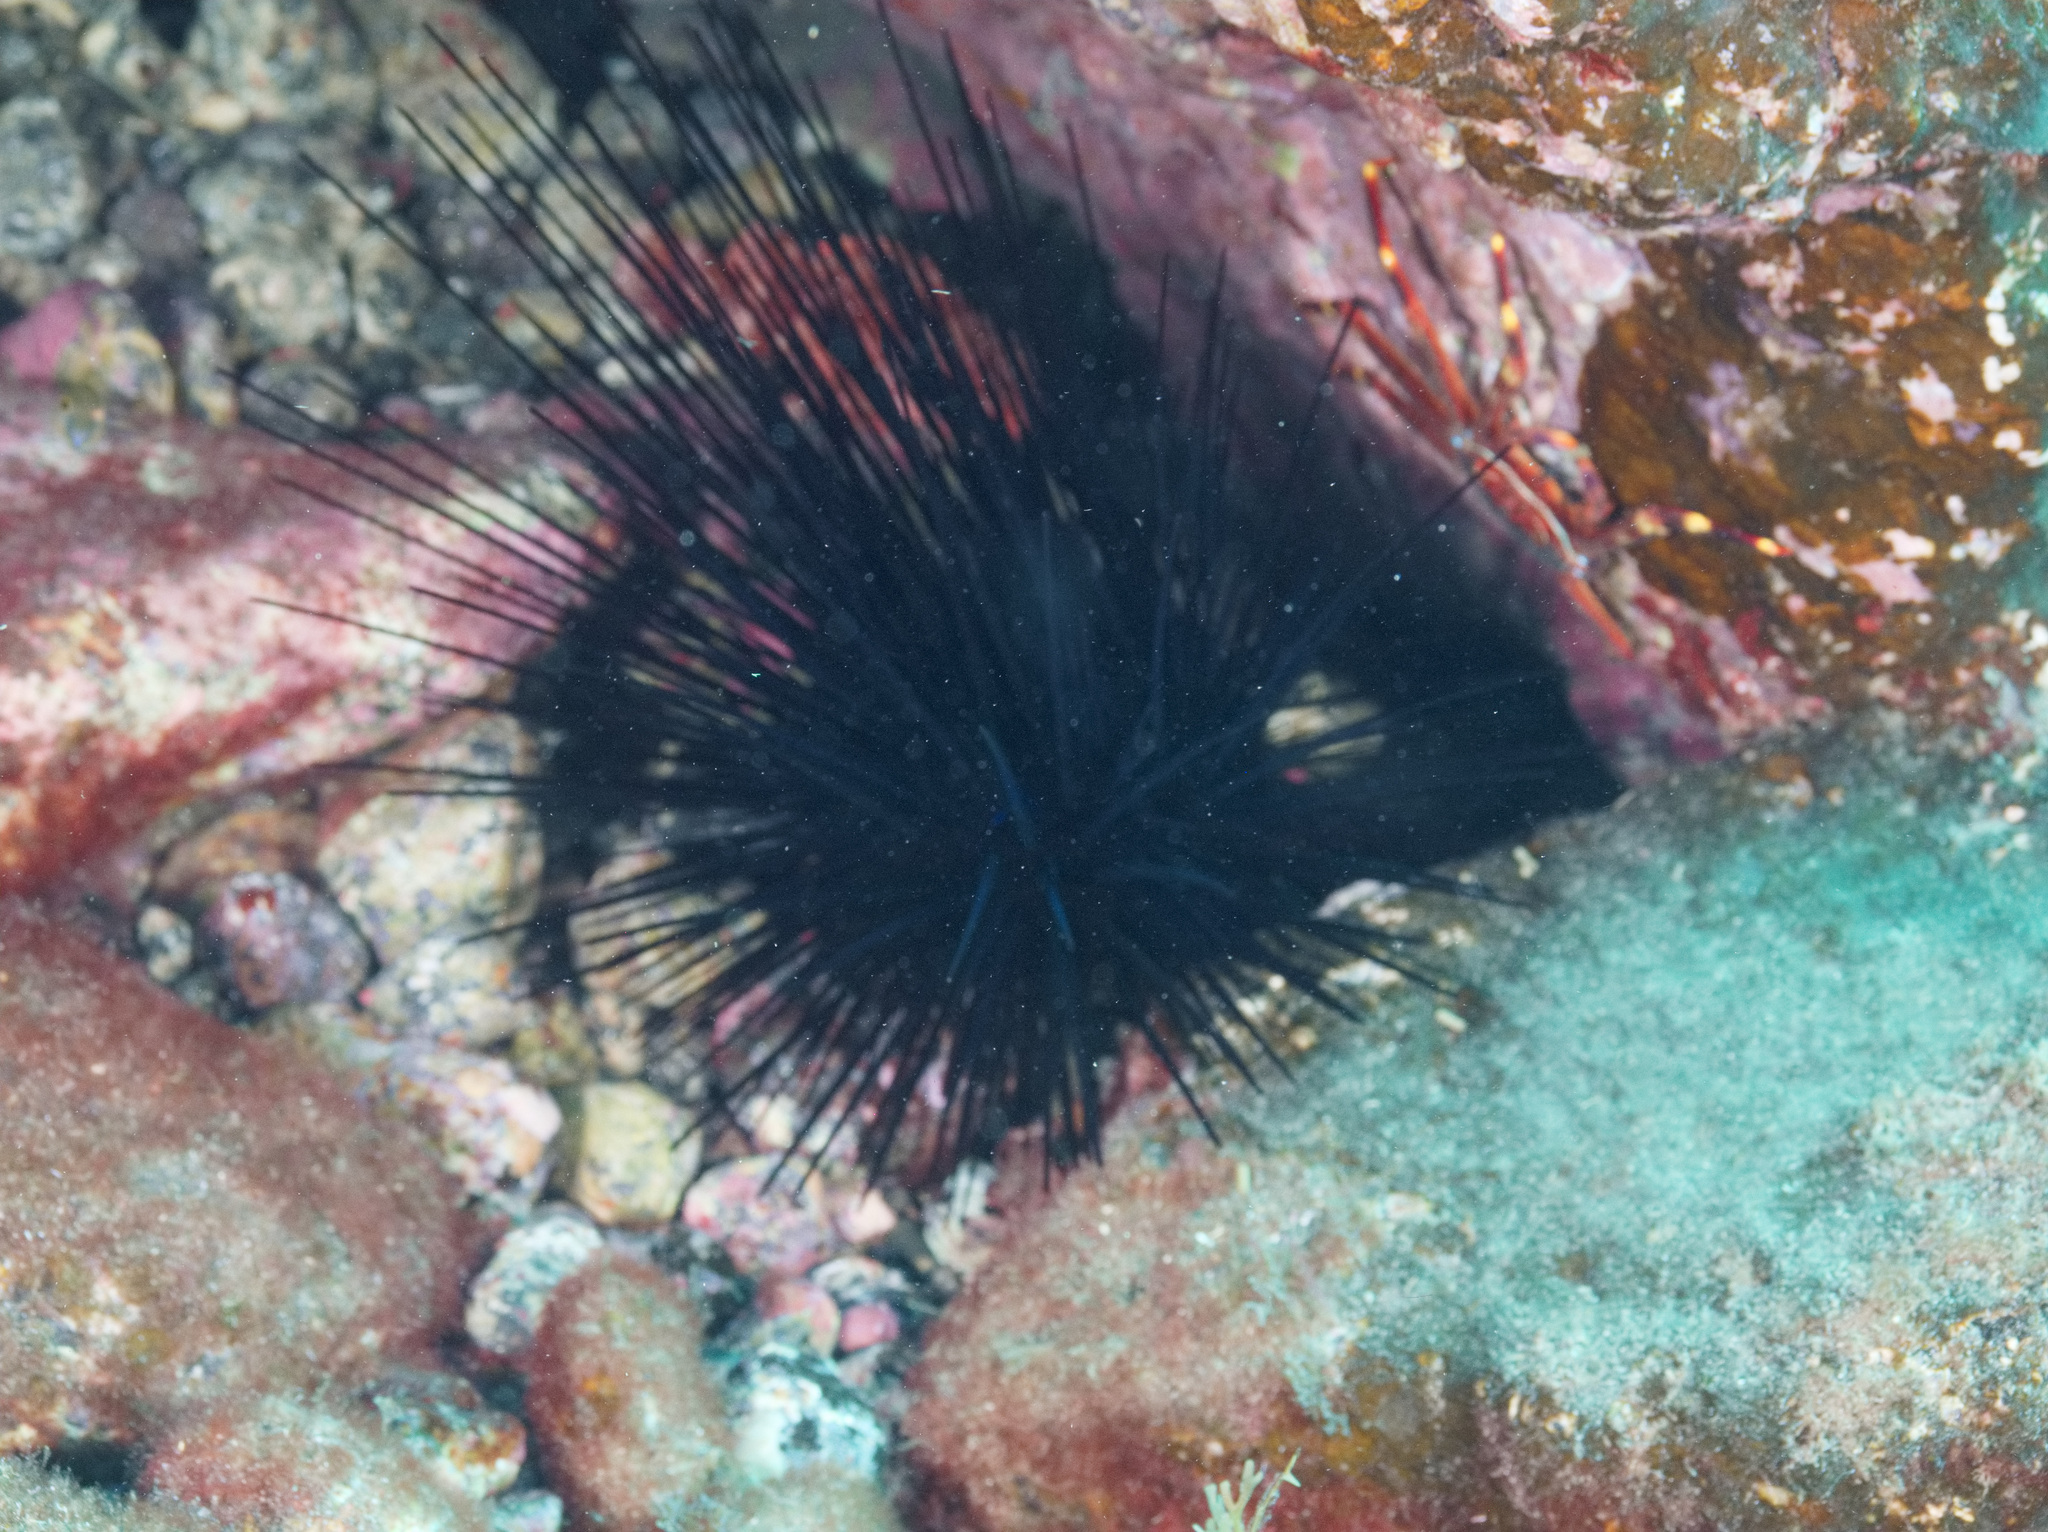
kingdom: Animalia
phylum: Echinodermata
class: Echinoidea
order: Diadematoida
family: Diadematidae
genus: Diadema
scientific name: Diadema africanum
